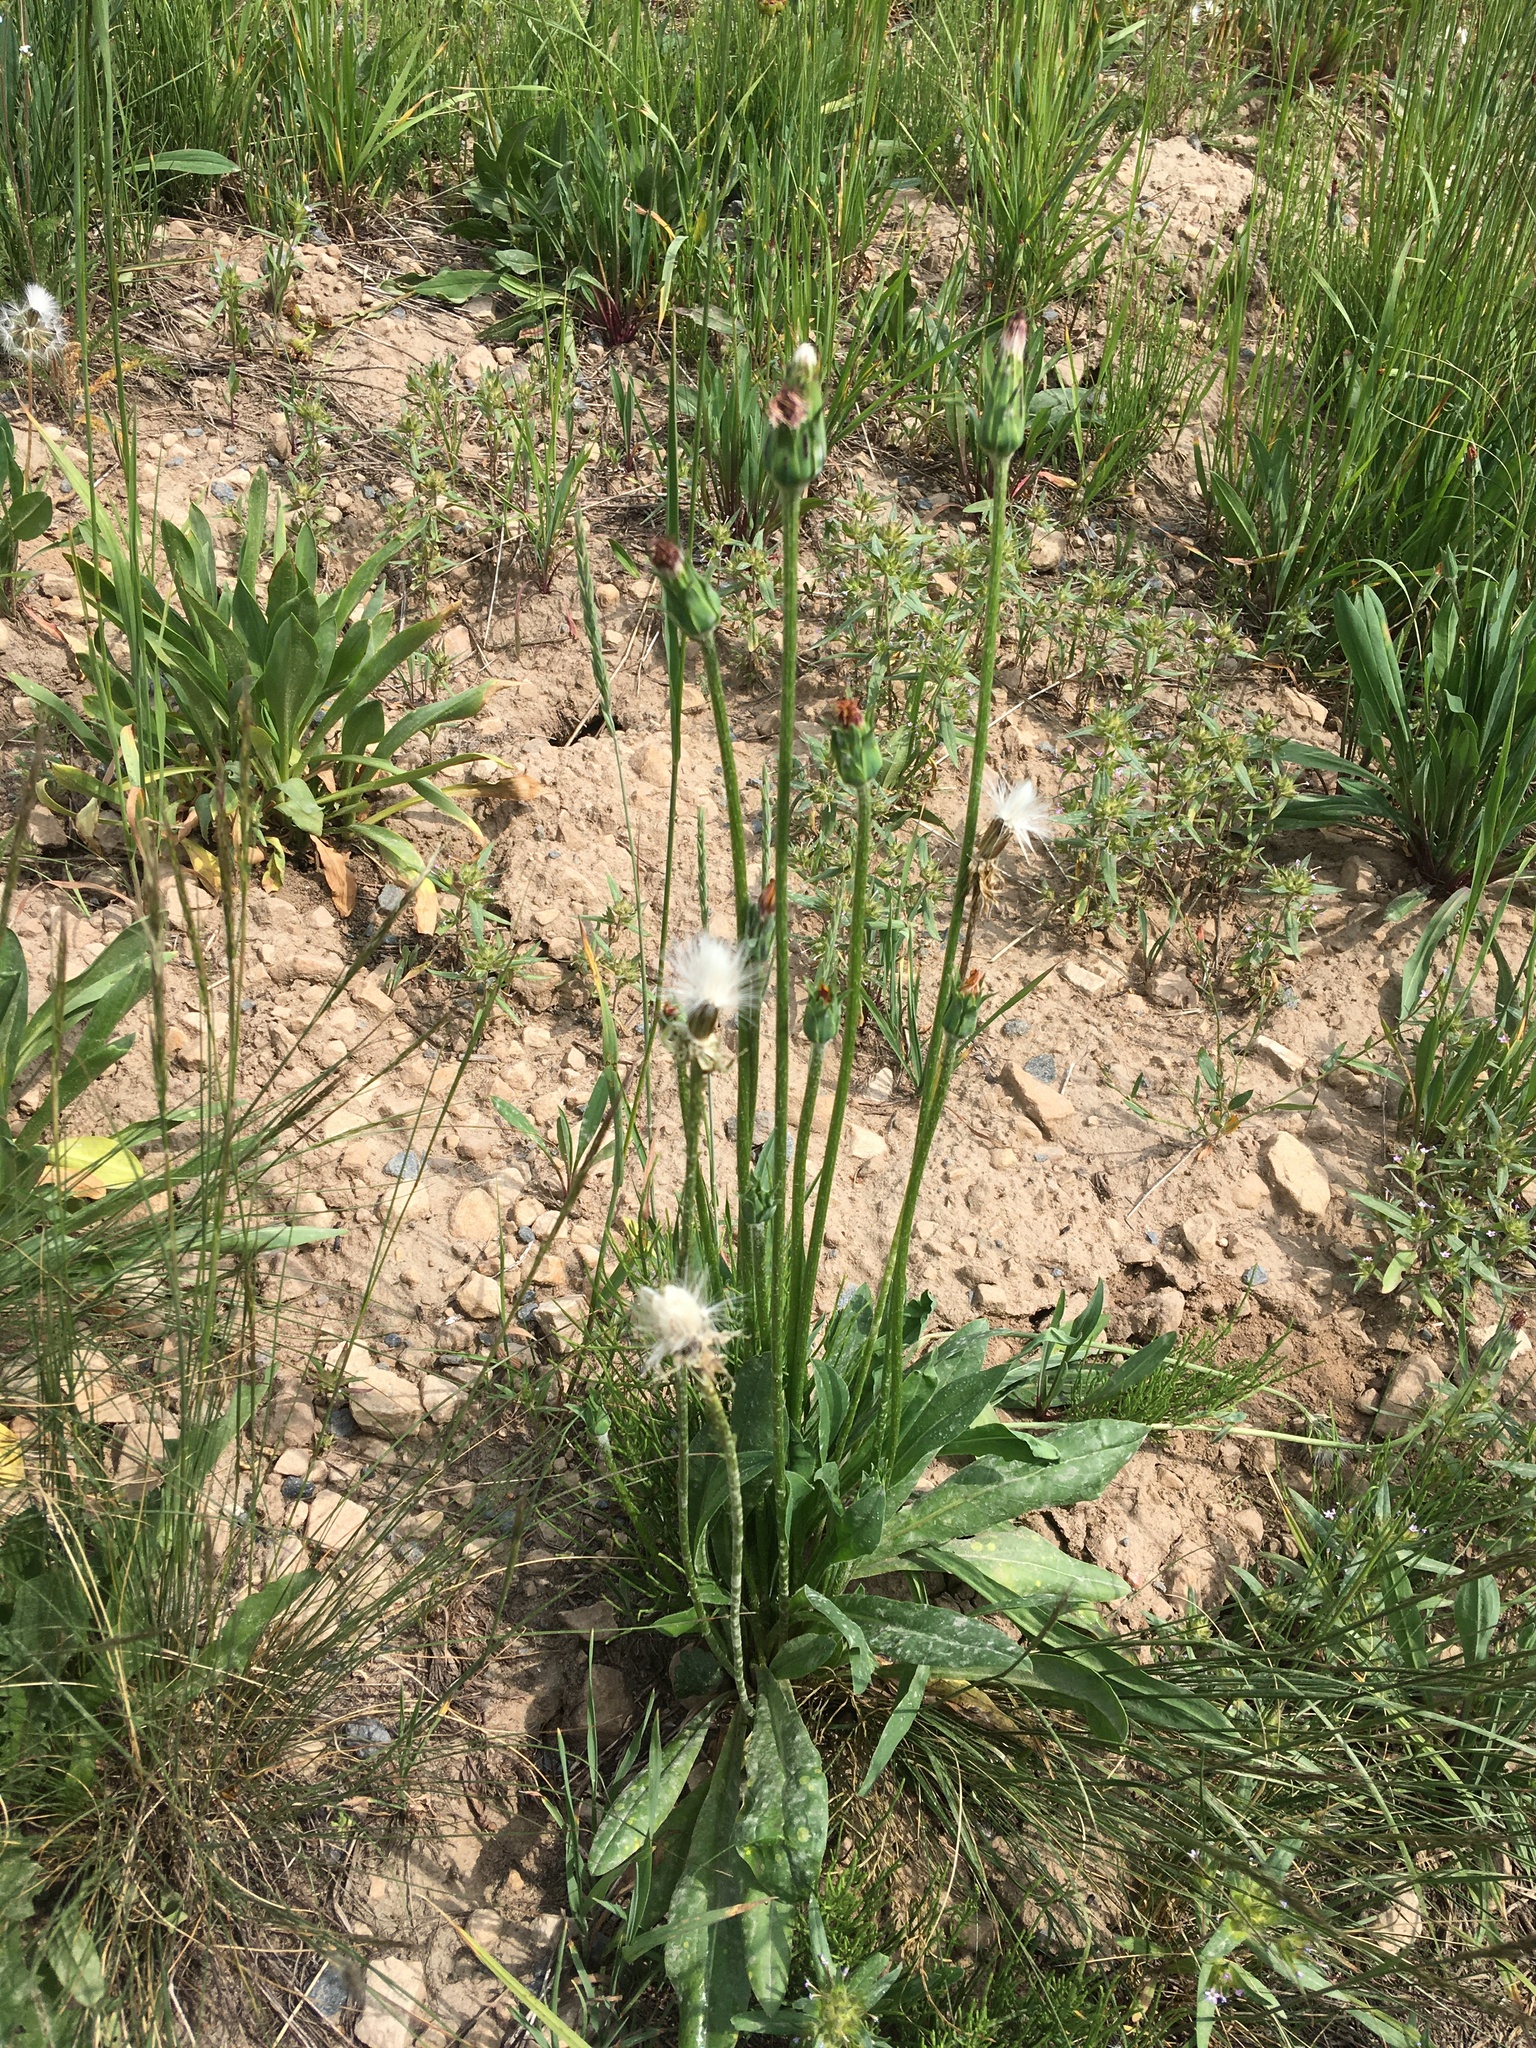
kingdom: Plantae
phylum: Tracheophyta
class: Magnoliopsida
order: Asterales
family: Asteraceae
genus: Agoseris
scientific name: Agoseris aurantiaca
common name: Mountain agoseris
